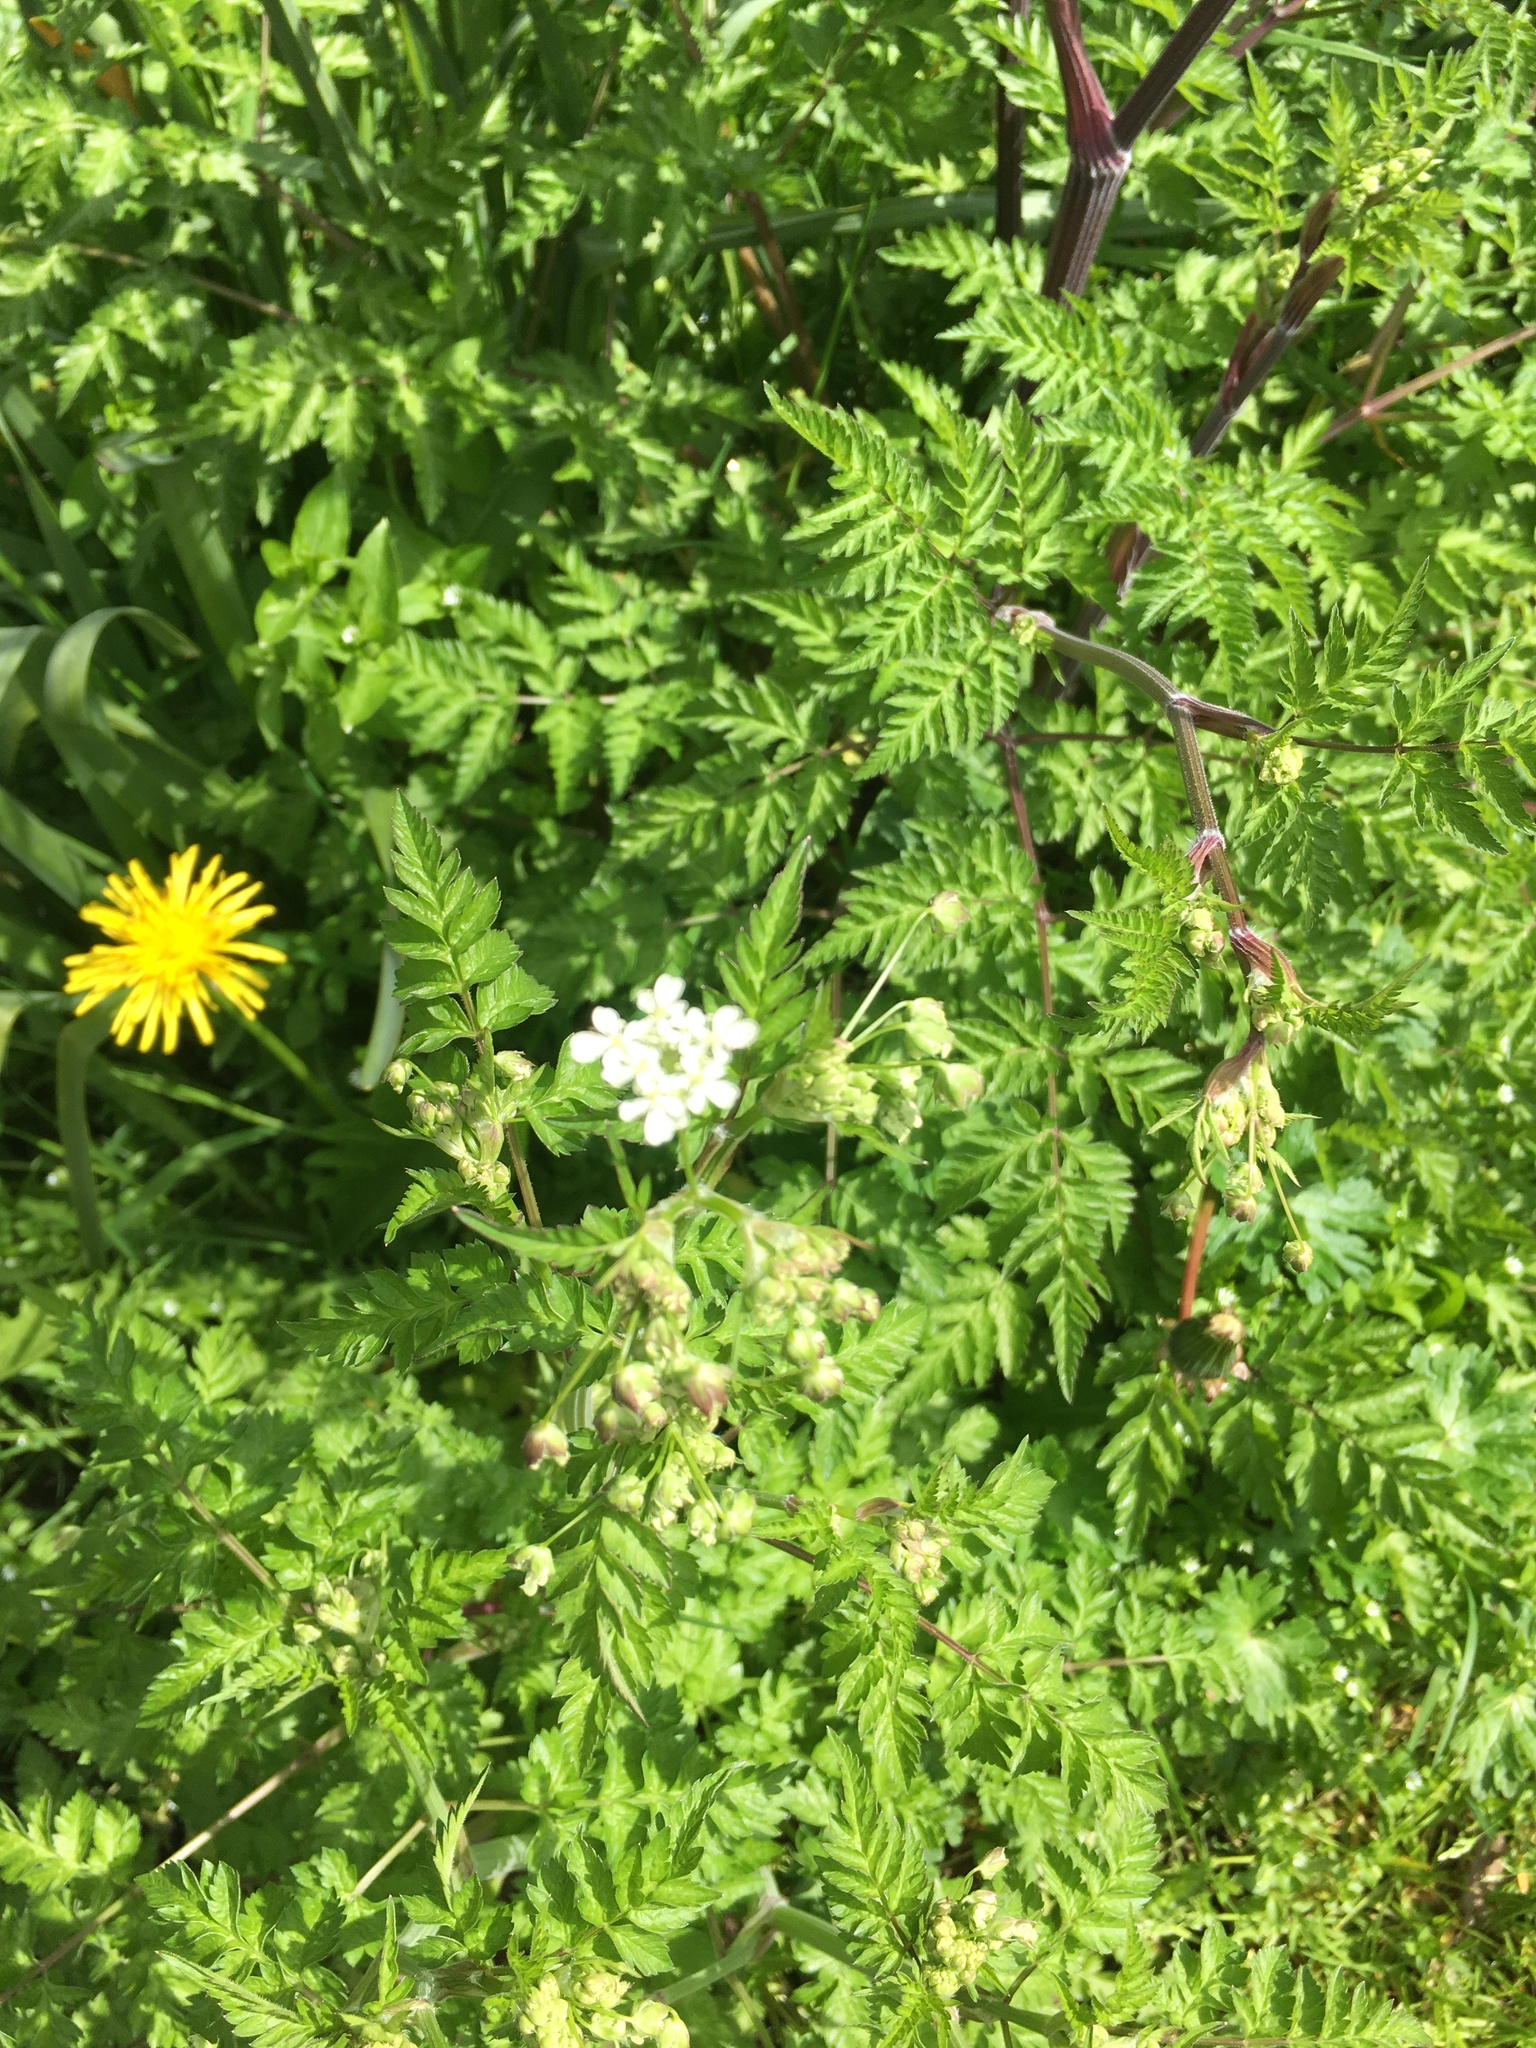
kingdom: Plantae
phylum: Tracheophyta
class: Magnoliopsida
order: Apiales
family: Apiaceae
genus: Anthriscus
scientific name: Anthriscus sylvestris
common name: Cow parsley
